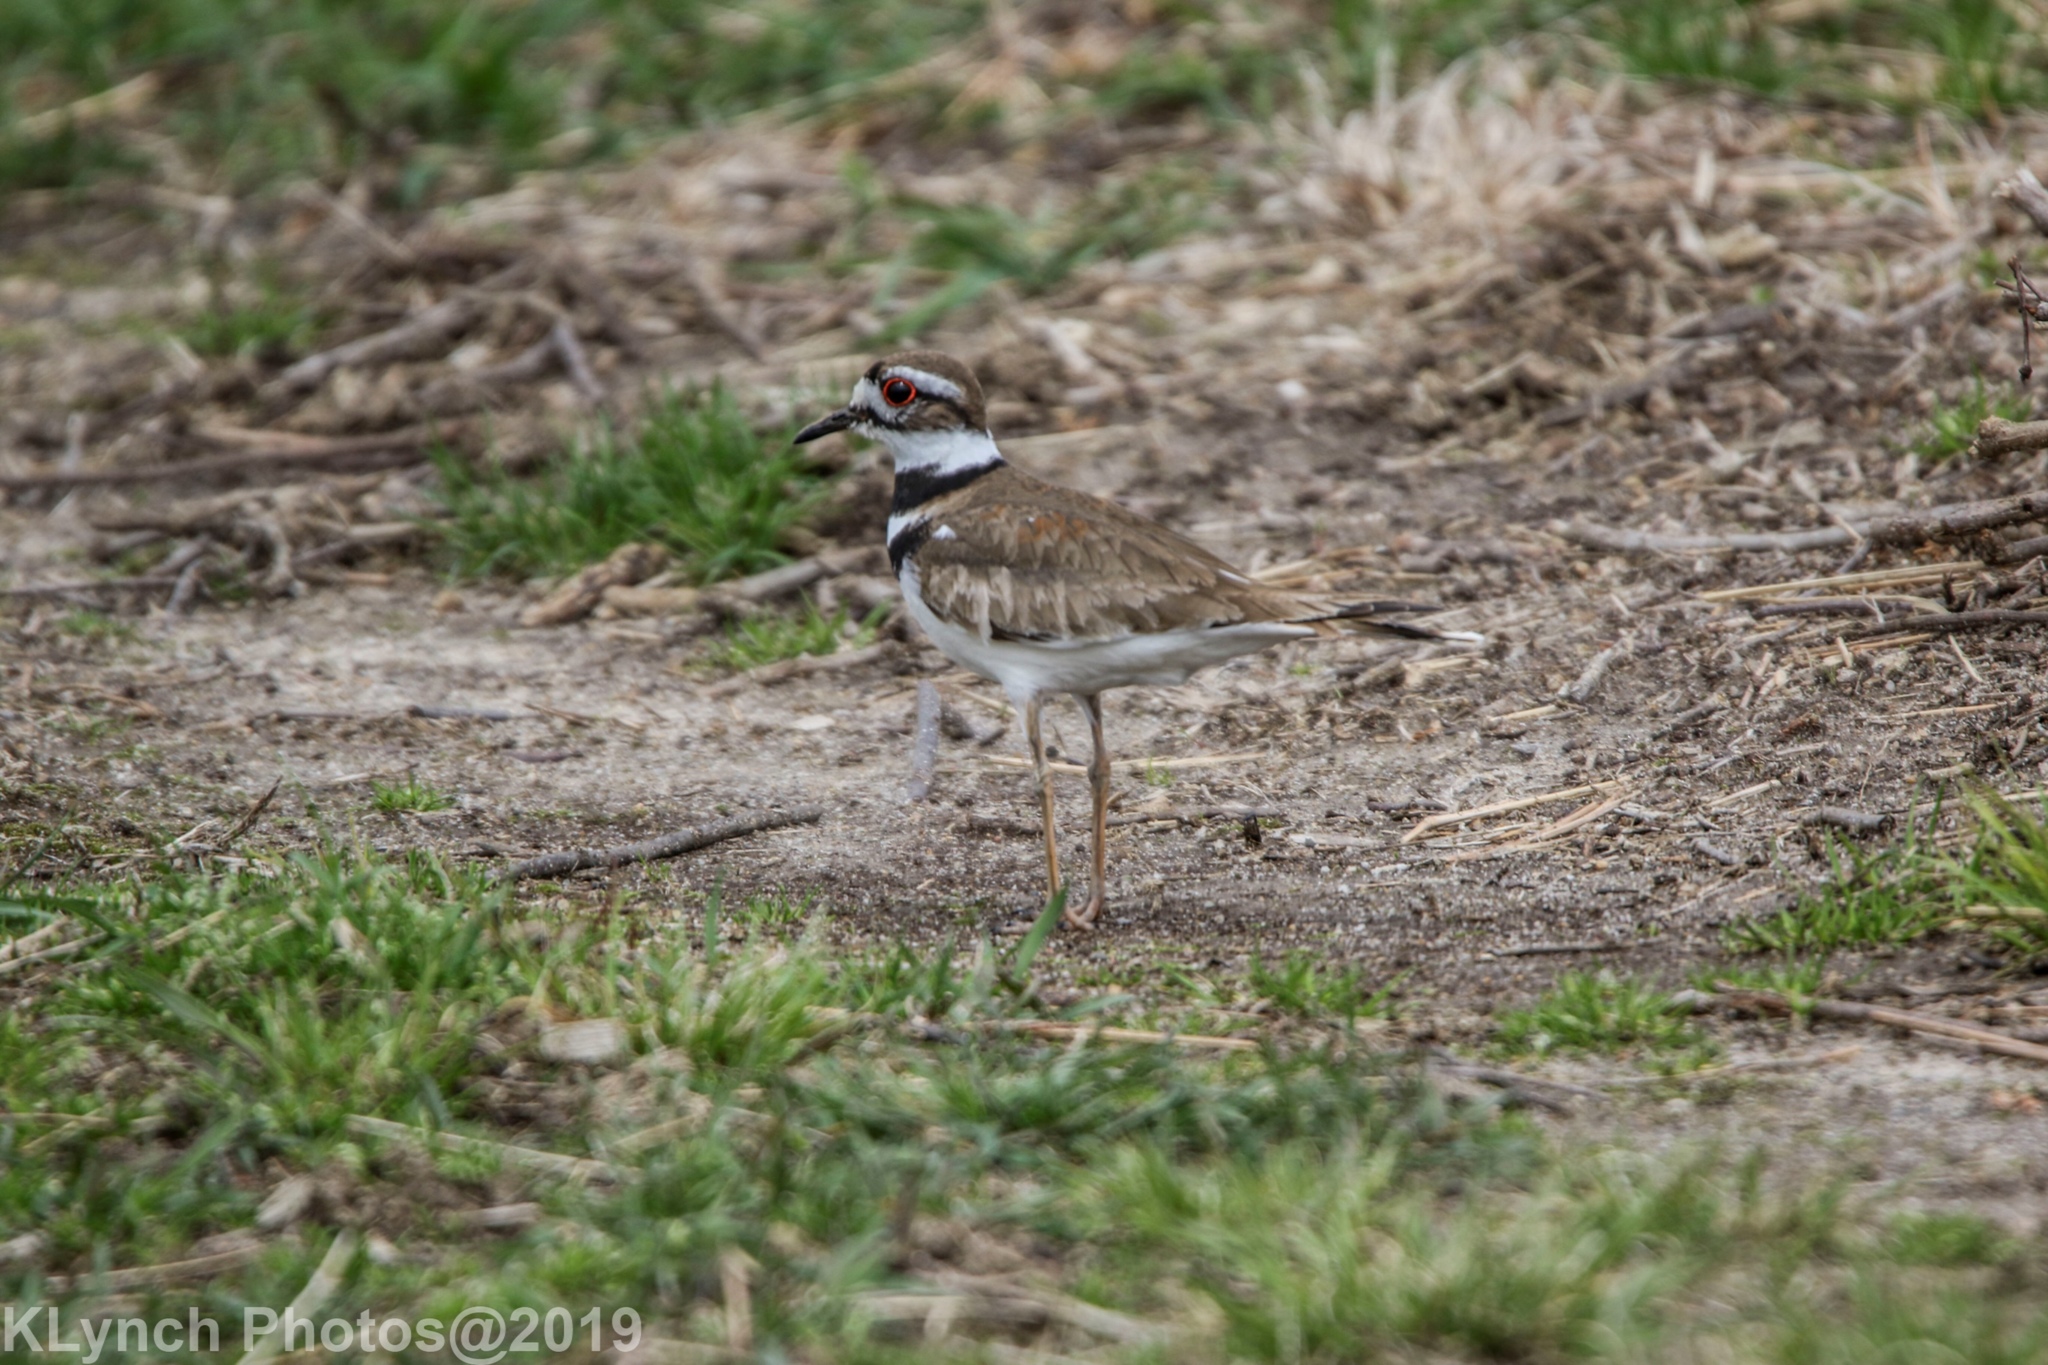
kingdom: Animalia
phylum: Chordata
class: Aves
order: Charadriiformes
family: Charadriidae
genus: Charadrius
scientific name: Charadrius vociferus
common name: Killdeer
